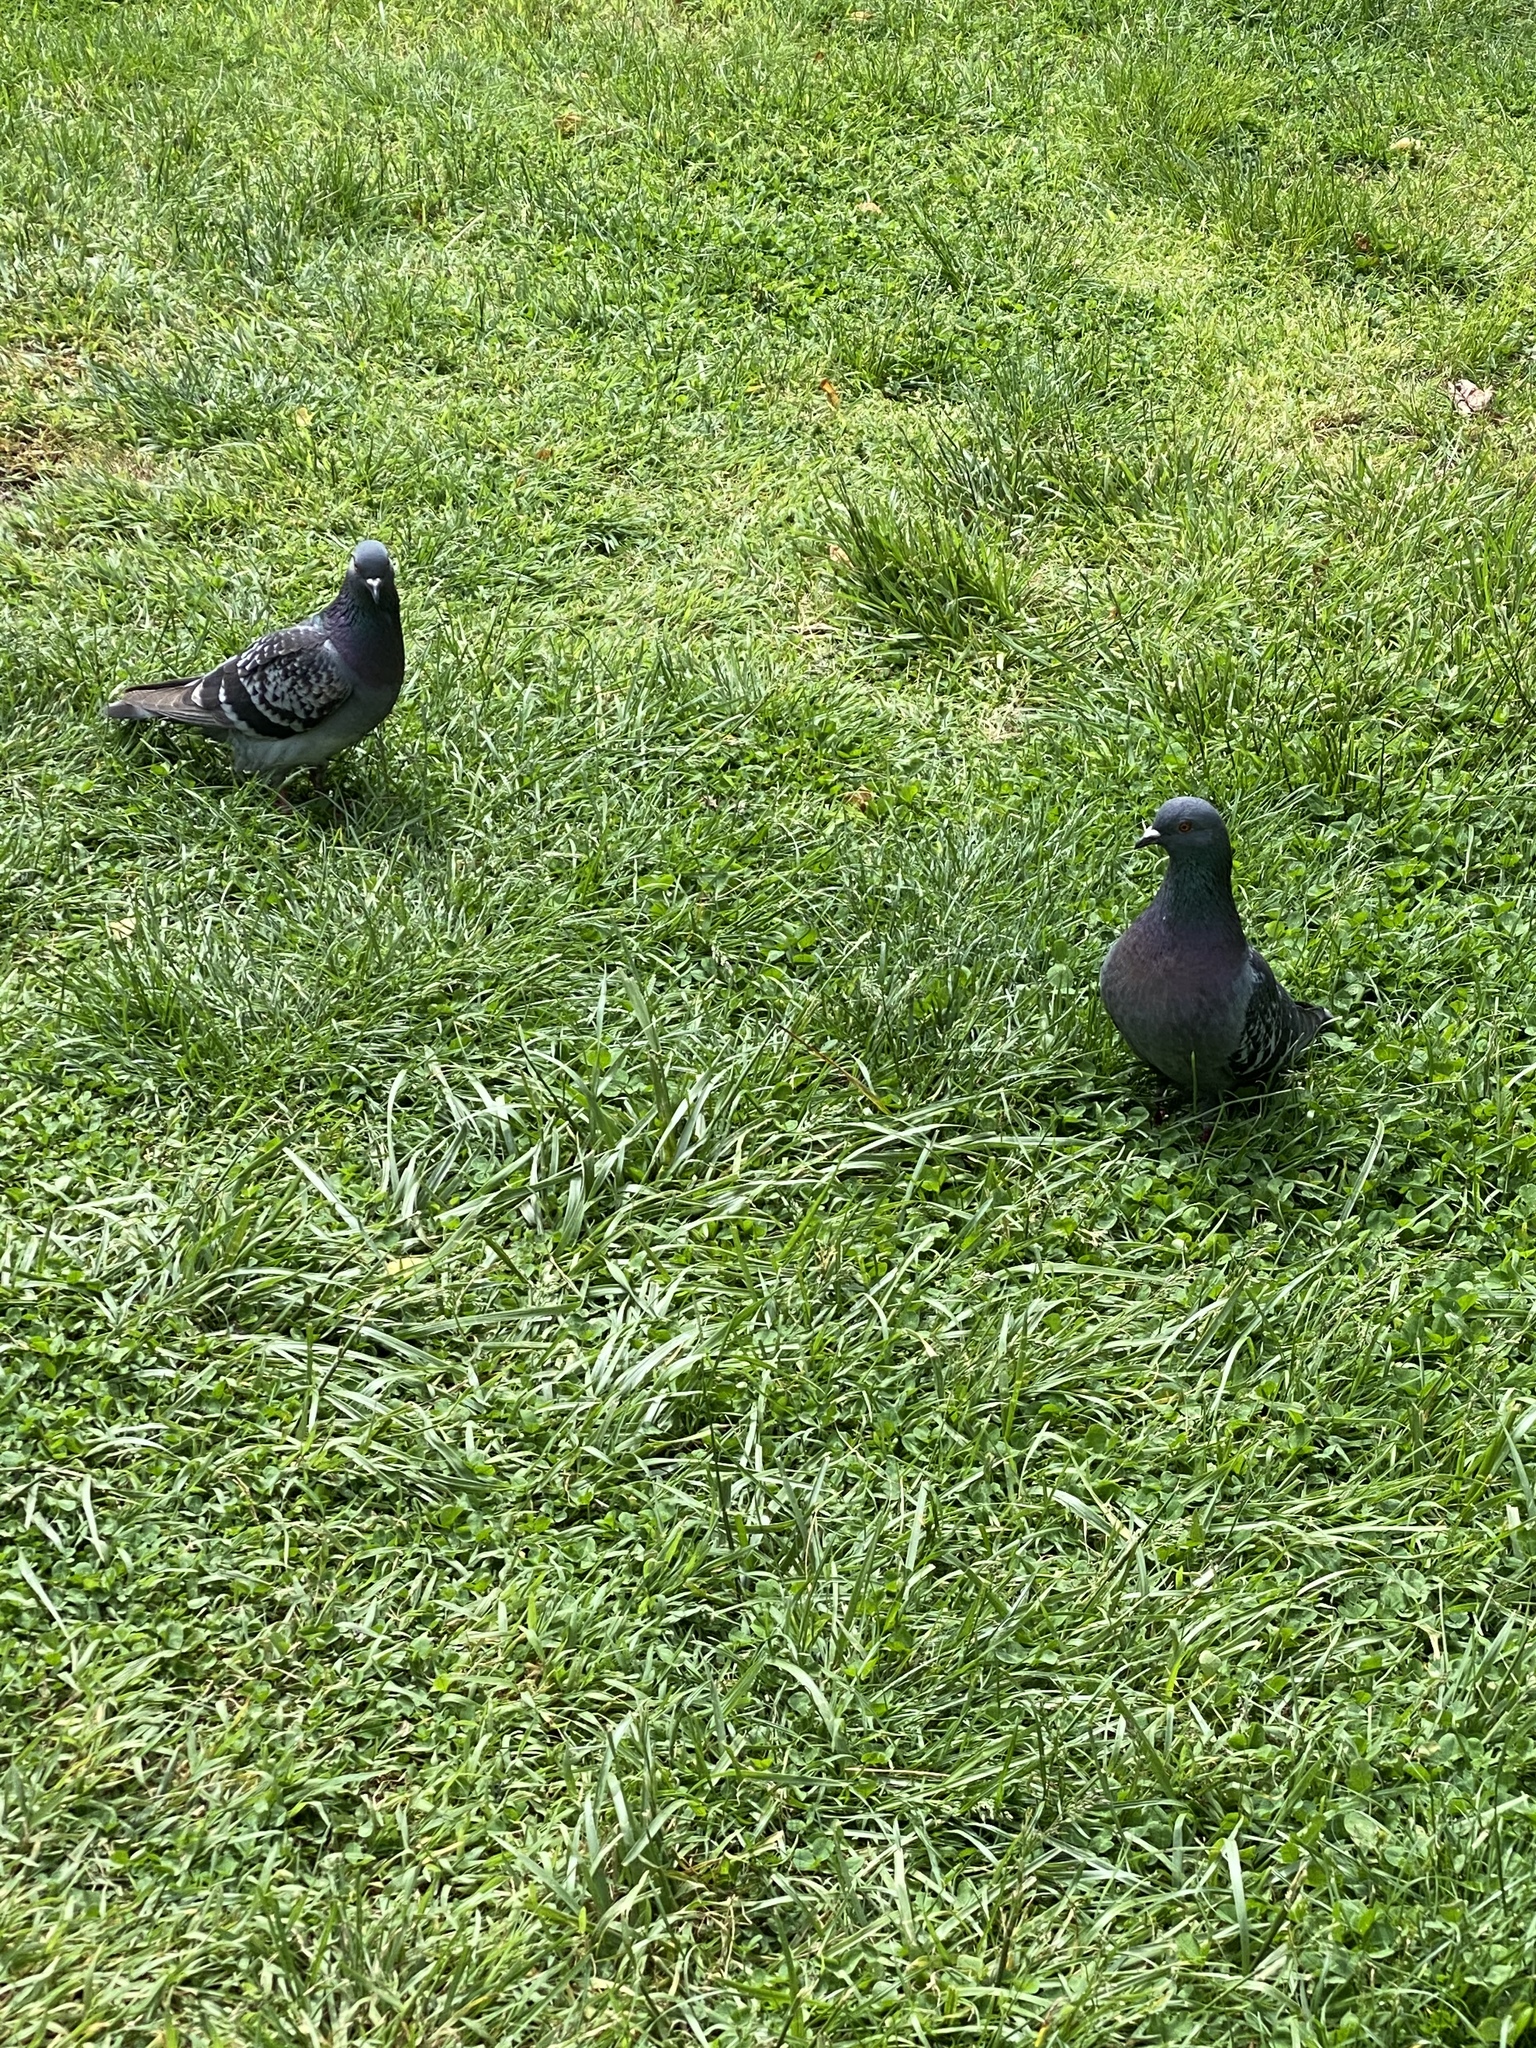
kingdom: Animalia
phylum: Chordata
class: Aves
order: Columbiformes
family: Columbidae
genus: Columba
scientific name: Columba livia
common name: Rock pigeon
